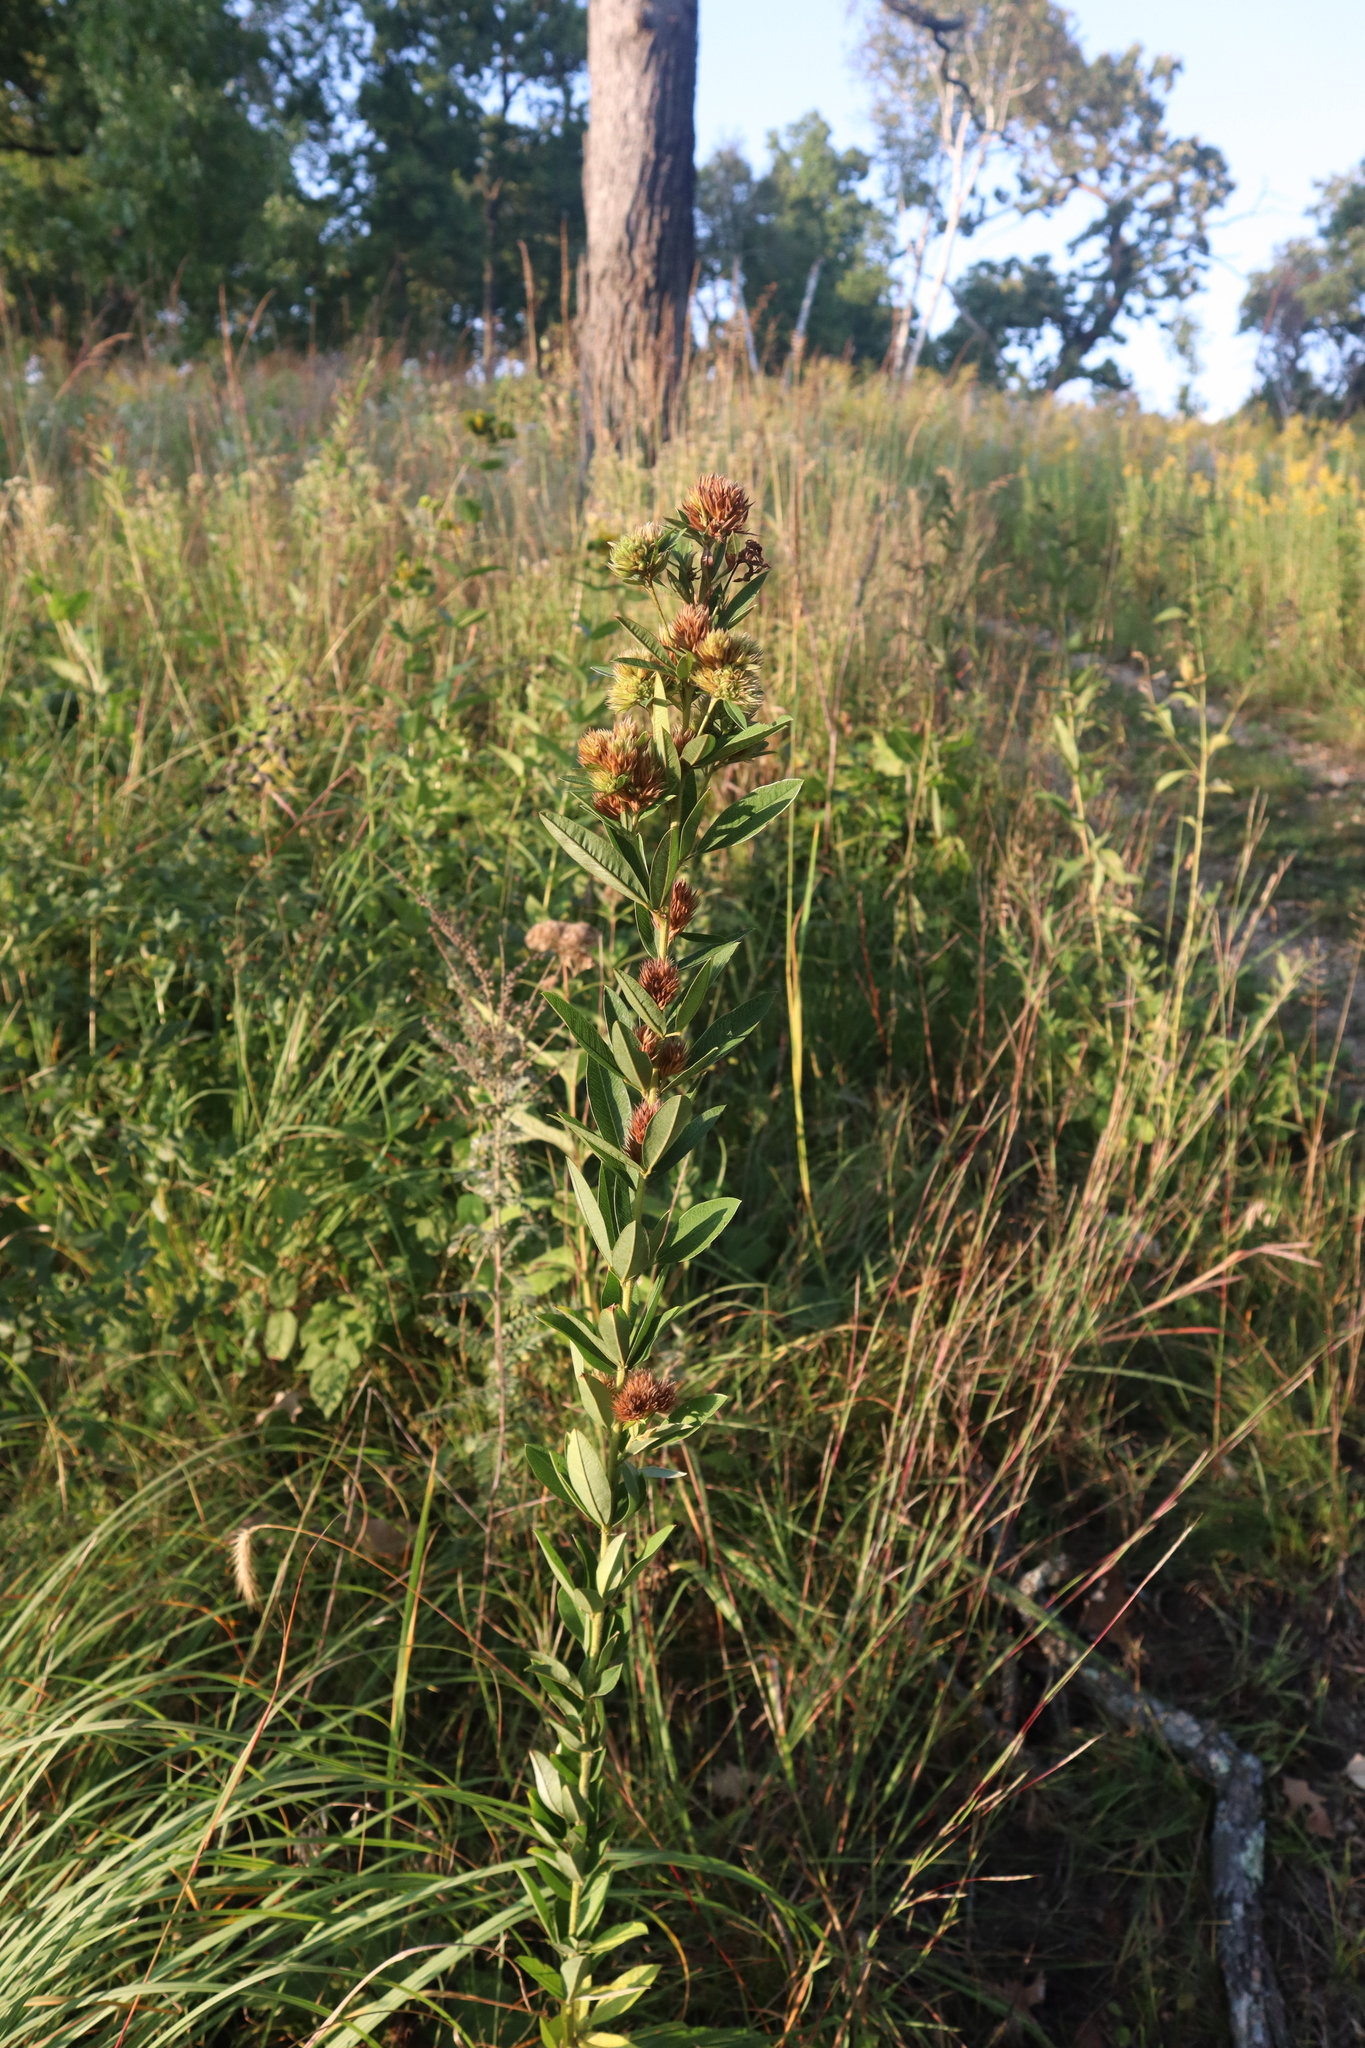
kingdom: Plantae
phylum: Tracheophyta
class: Magnoliopsida
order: Fabales
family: Fabaceae
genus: Lespedeza
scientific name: Lespedeza capitata
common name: Dusty clover
